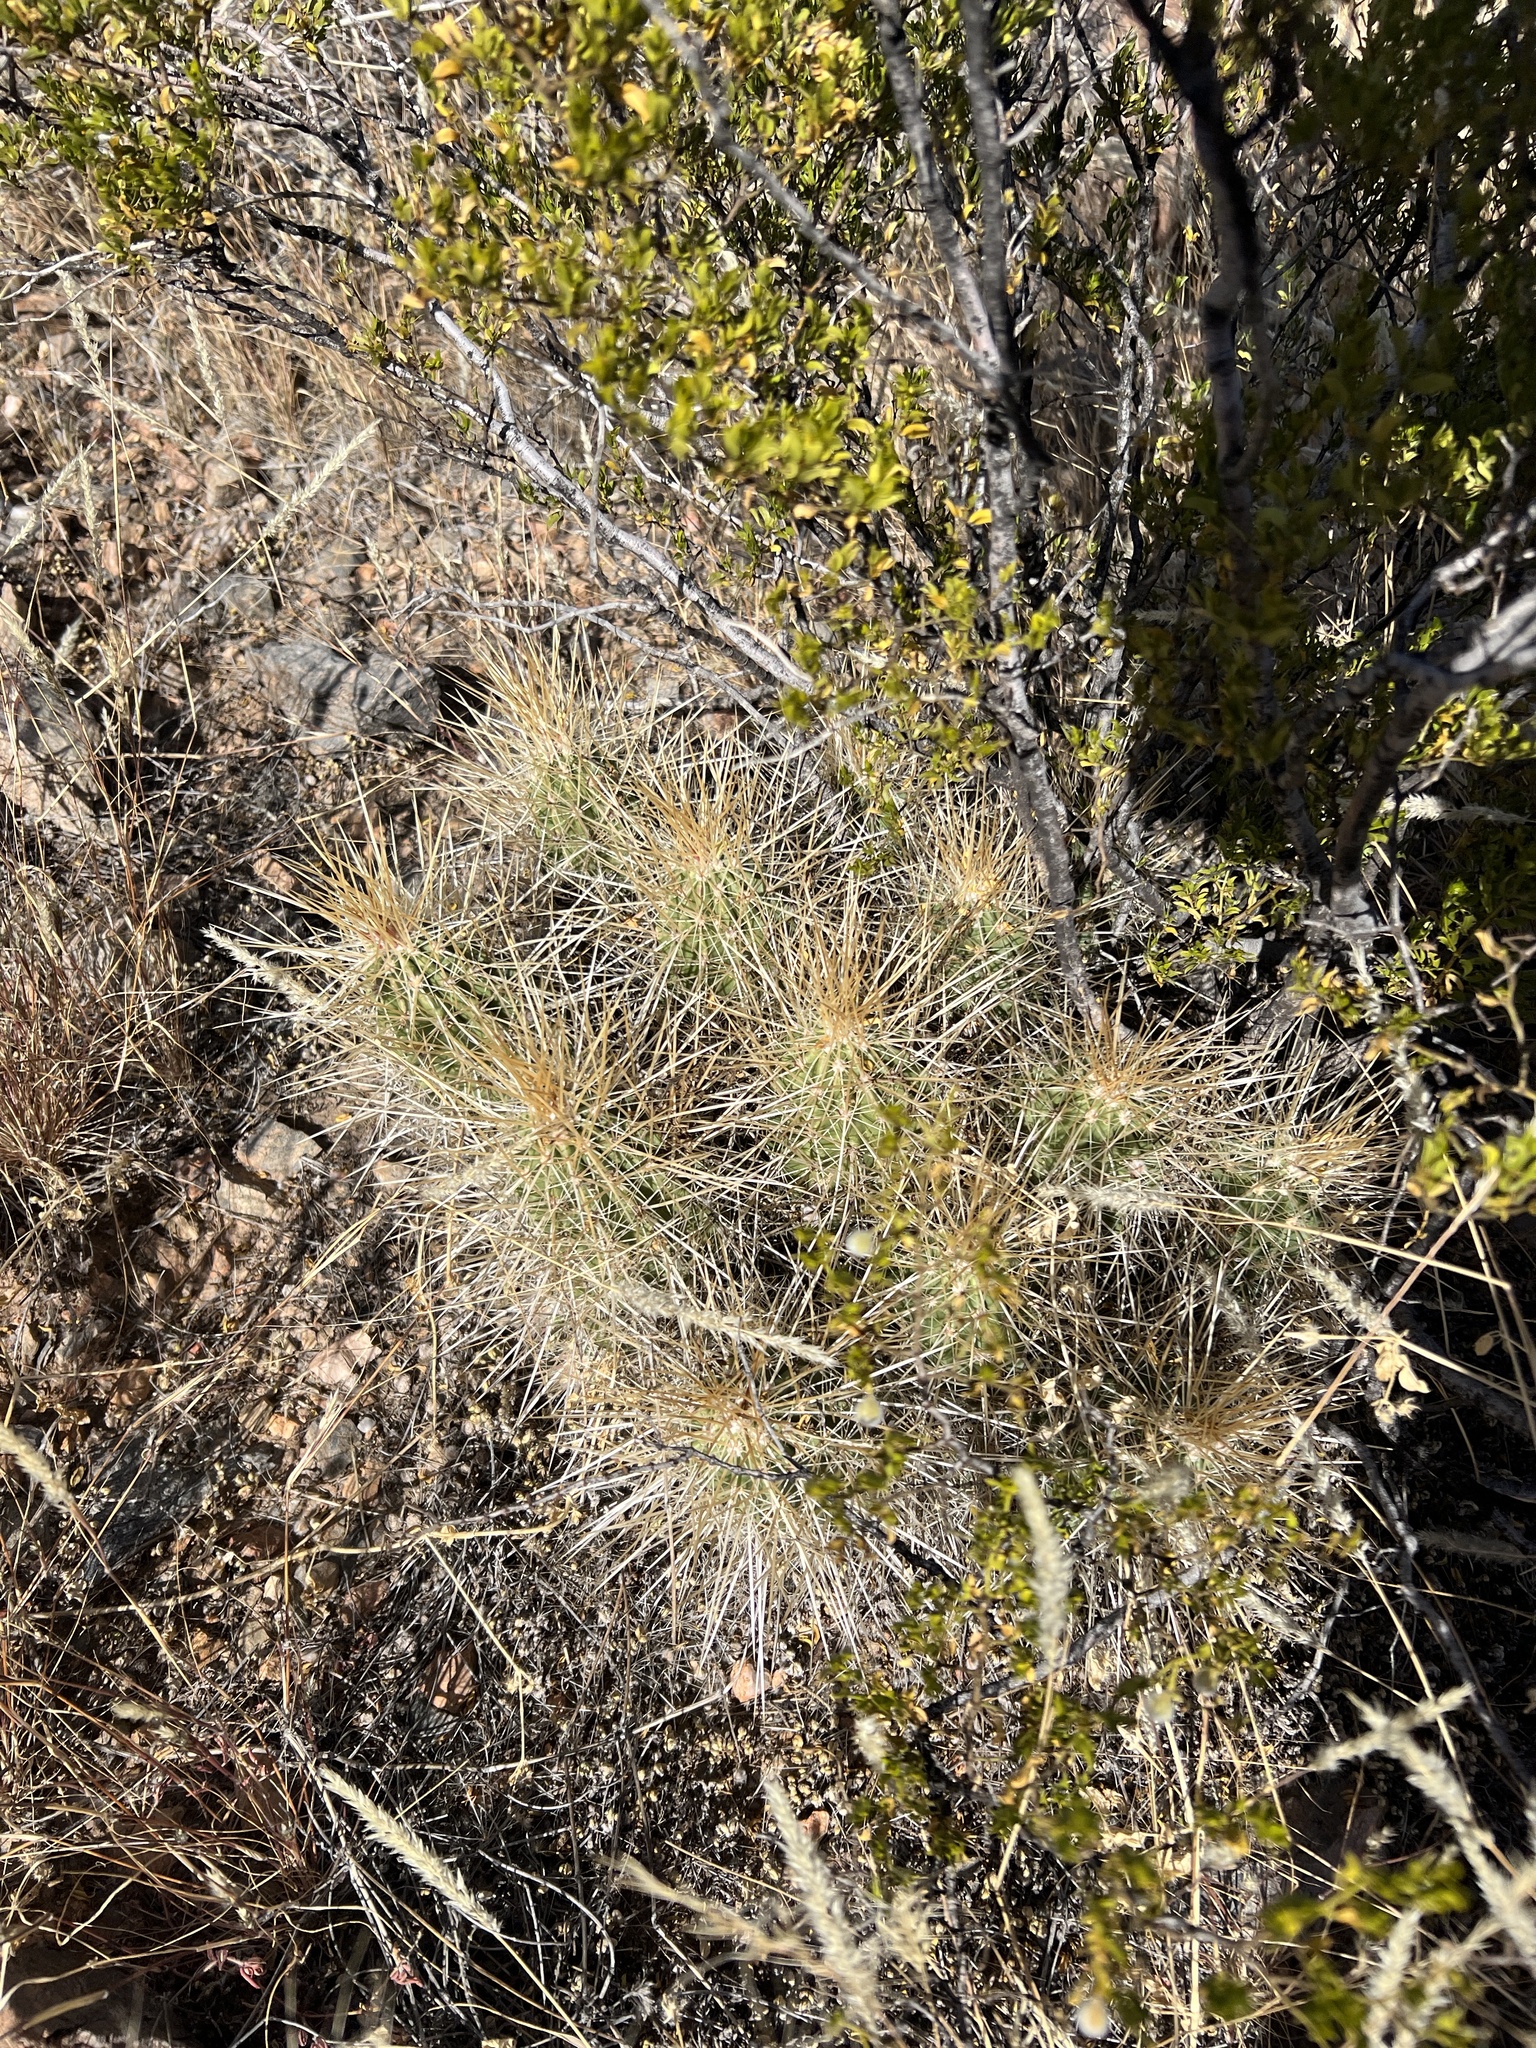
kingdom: Plantae
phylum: Tracheophyta
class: Magnoliopsida
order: Caryophyllales
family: Cactaceae
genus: Echinocereus
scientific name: Echinocereus stramineus
